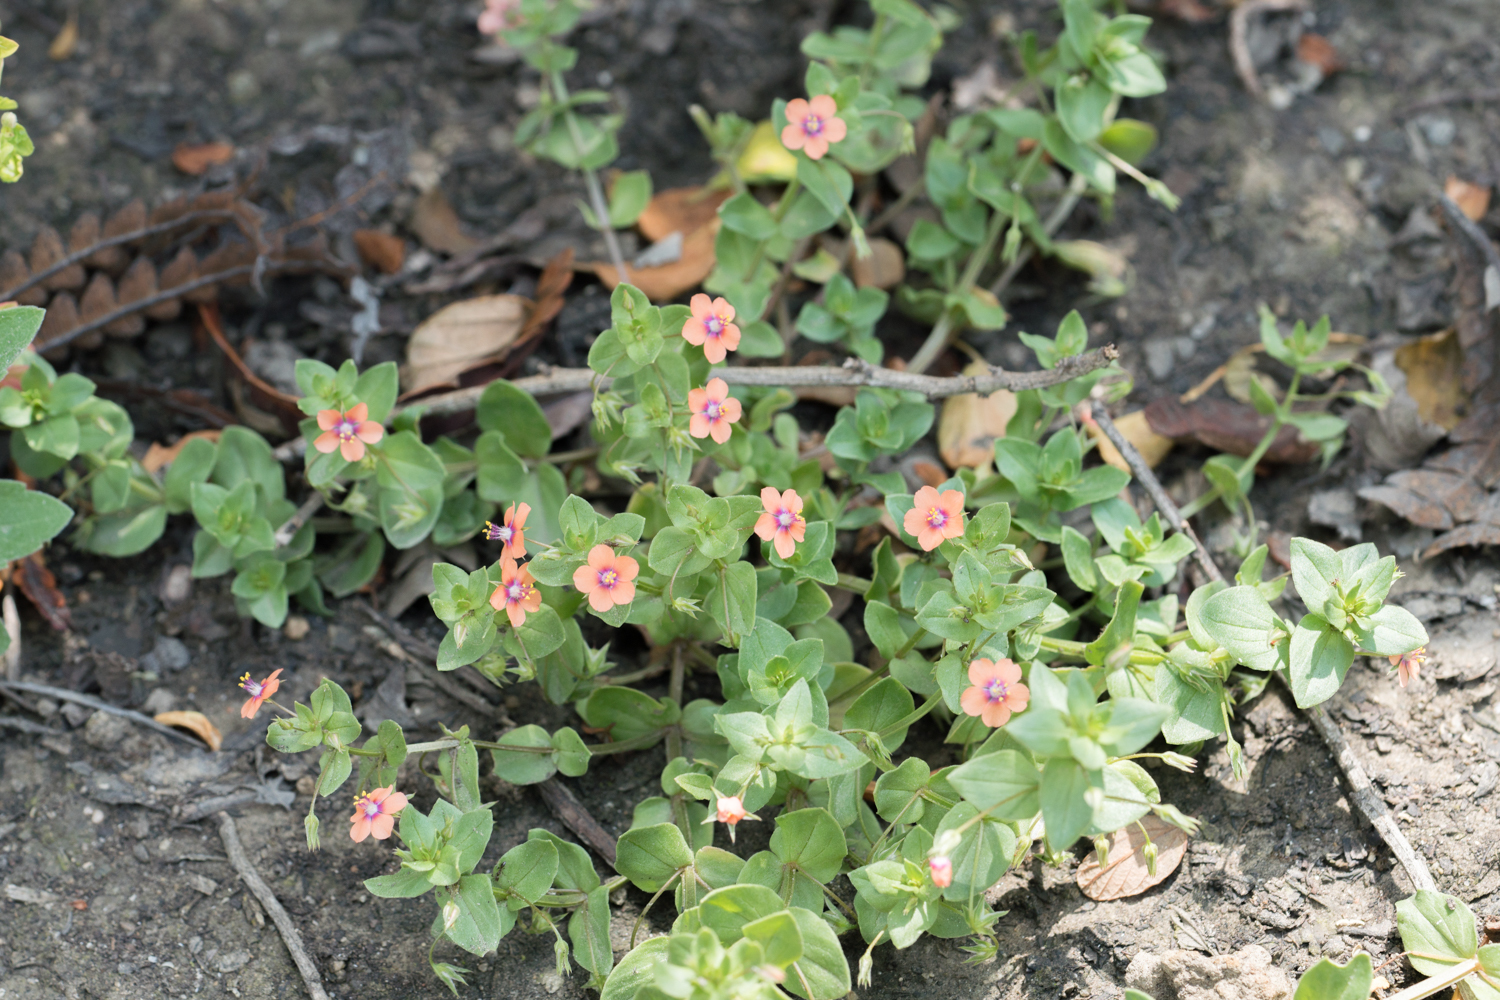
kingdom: Plantae
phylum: Tracheophyta
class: Magnoliopsida
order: Ericales
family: Primulaceae
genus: Lysimachia
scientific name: Lysimachia arvensis
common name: Scarlet pimpernel
